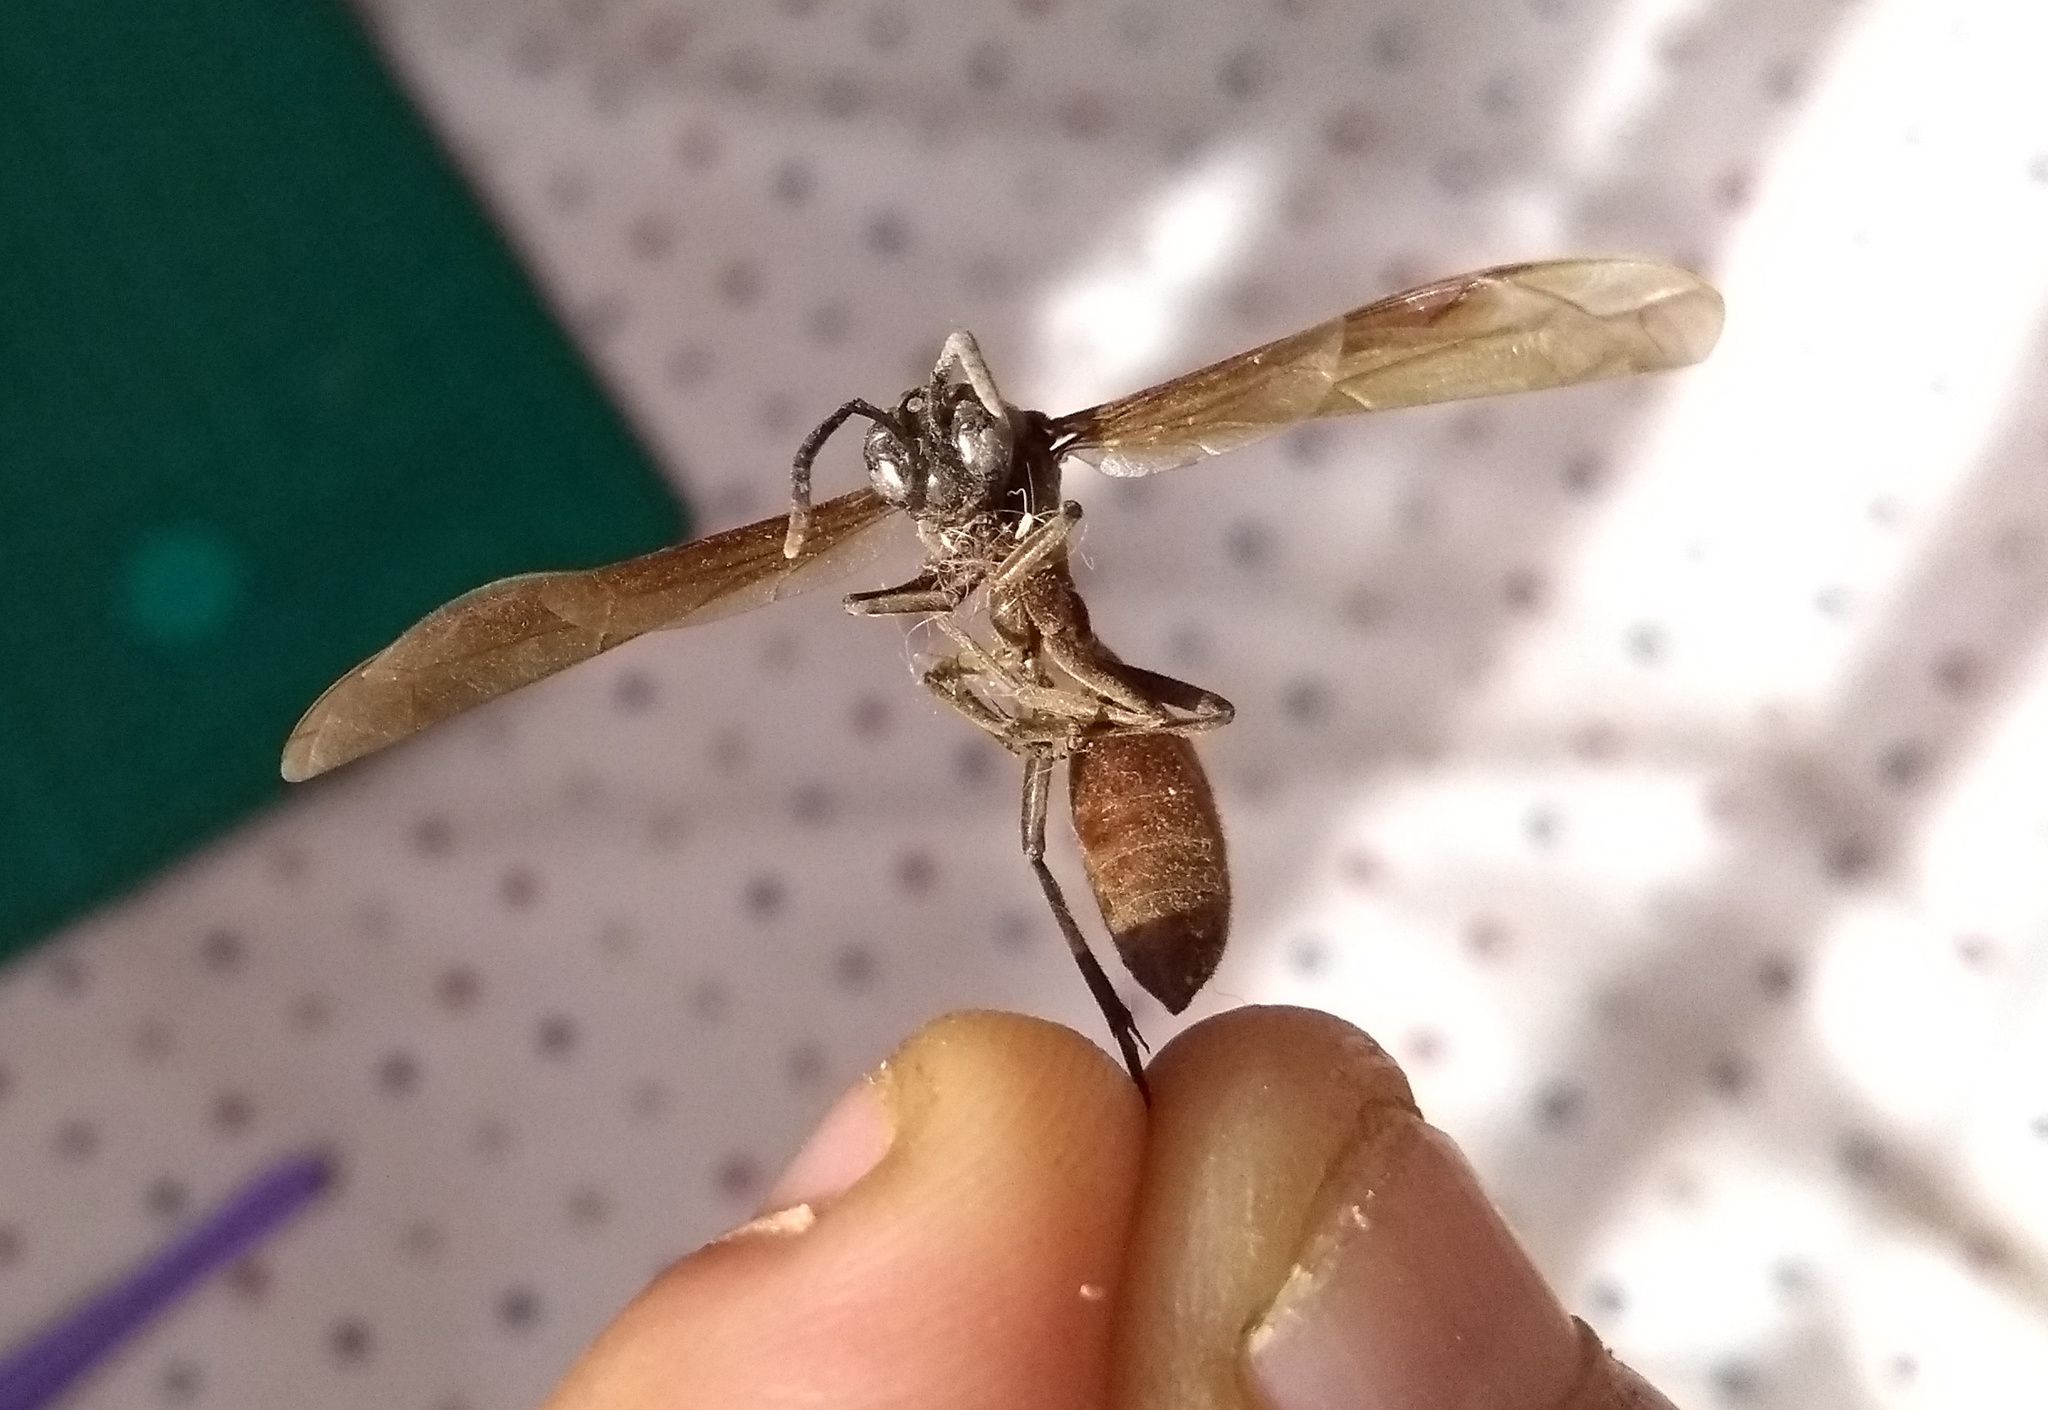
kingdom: Animalia
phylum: Arthropoda
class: Insecta
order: Hymenoptera
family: Vespidae
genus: Apoica
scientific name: Apoica thoracica
